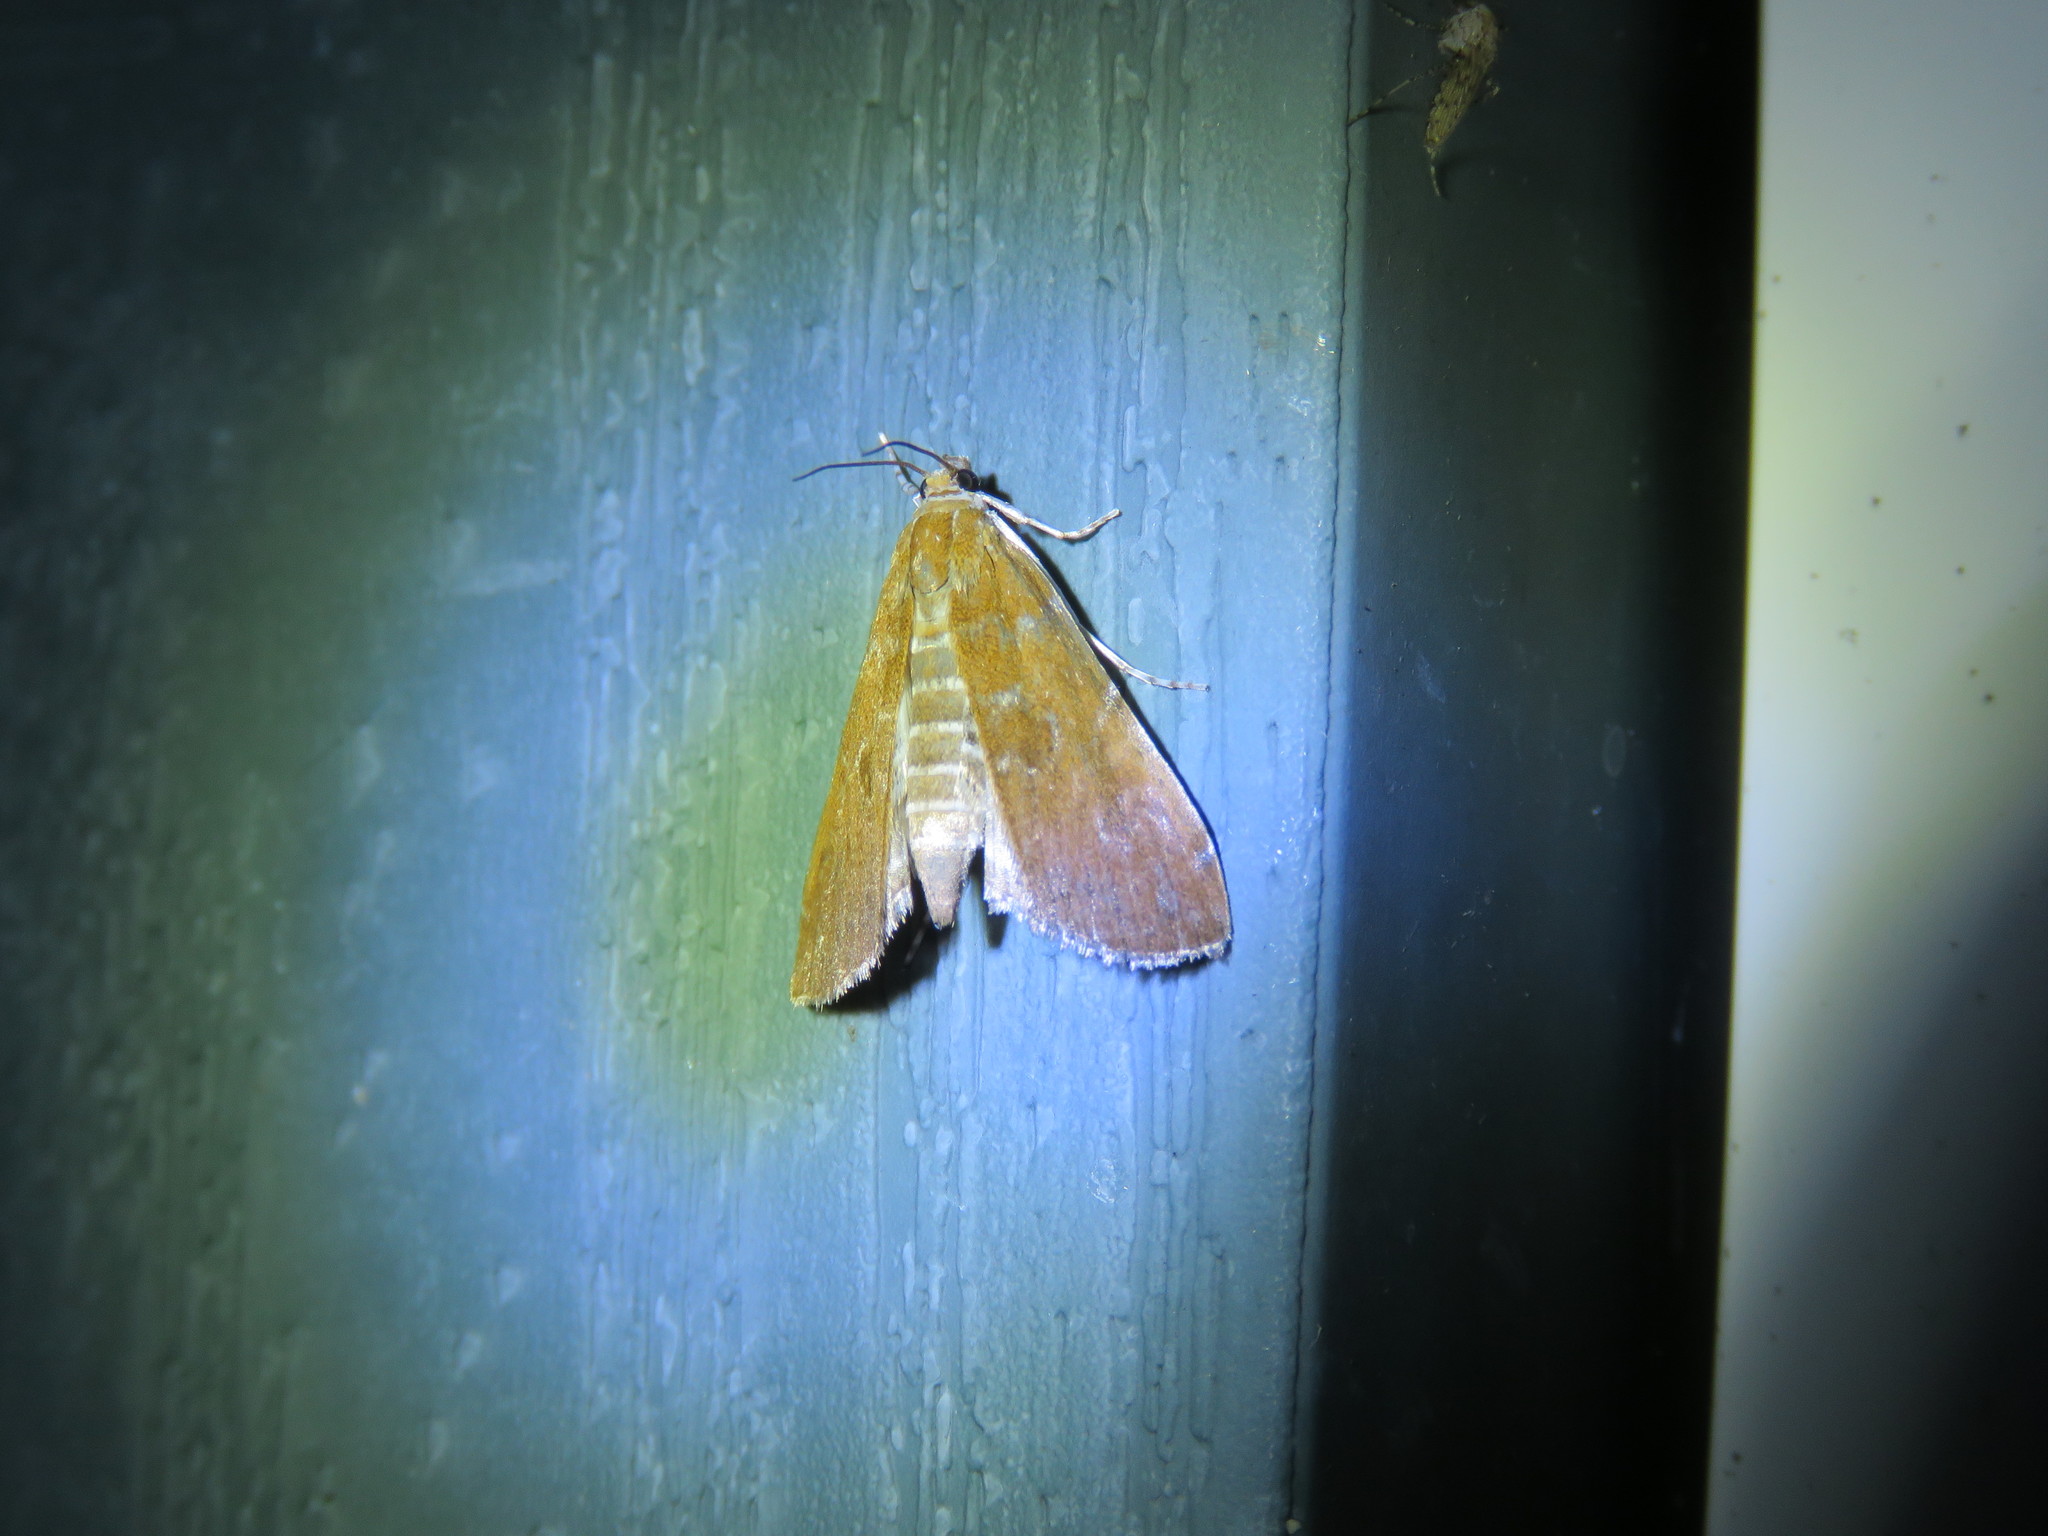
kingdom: Animalia
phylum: Arthropoda
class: Insecta
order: Lepidoptera
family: Crambidae
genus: Elophila
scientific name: Elophila gyralis
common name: Waterlily borer moth
